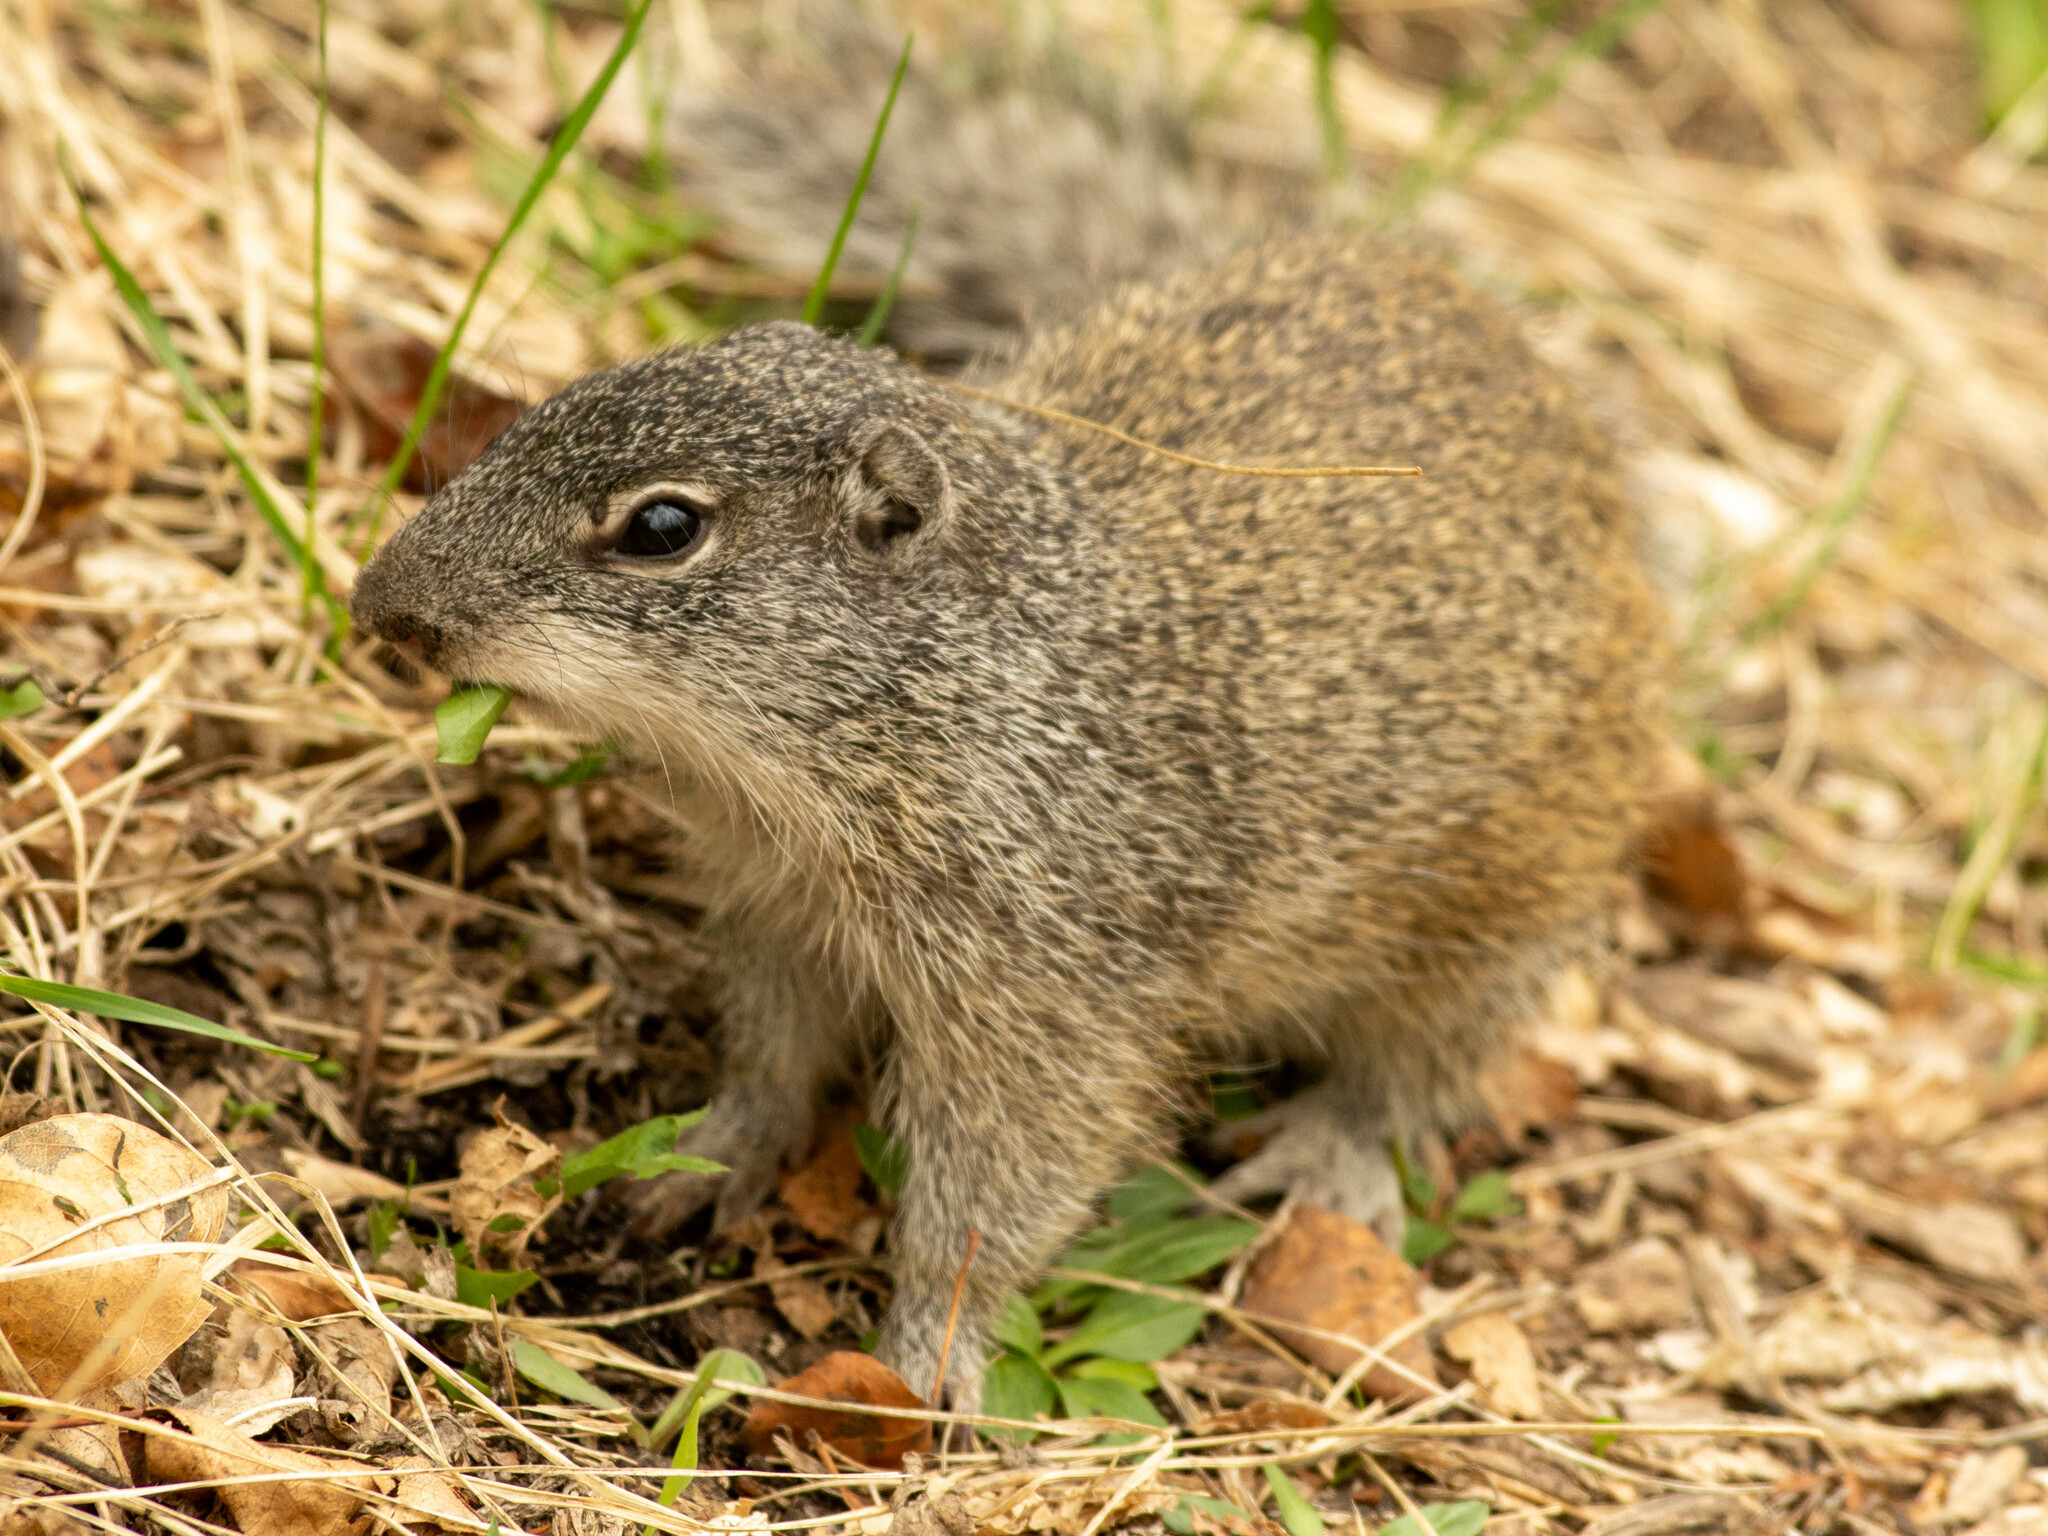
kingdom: Animalia
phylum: Chordata
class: Mammalia
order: Rodentia
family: Sciuridae
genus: Poliocitellus
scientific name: Poliocitellus franklinii
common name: Franklin's ground squirrel
